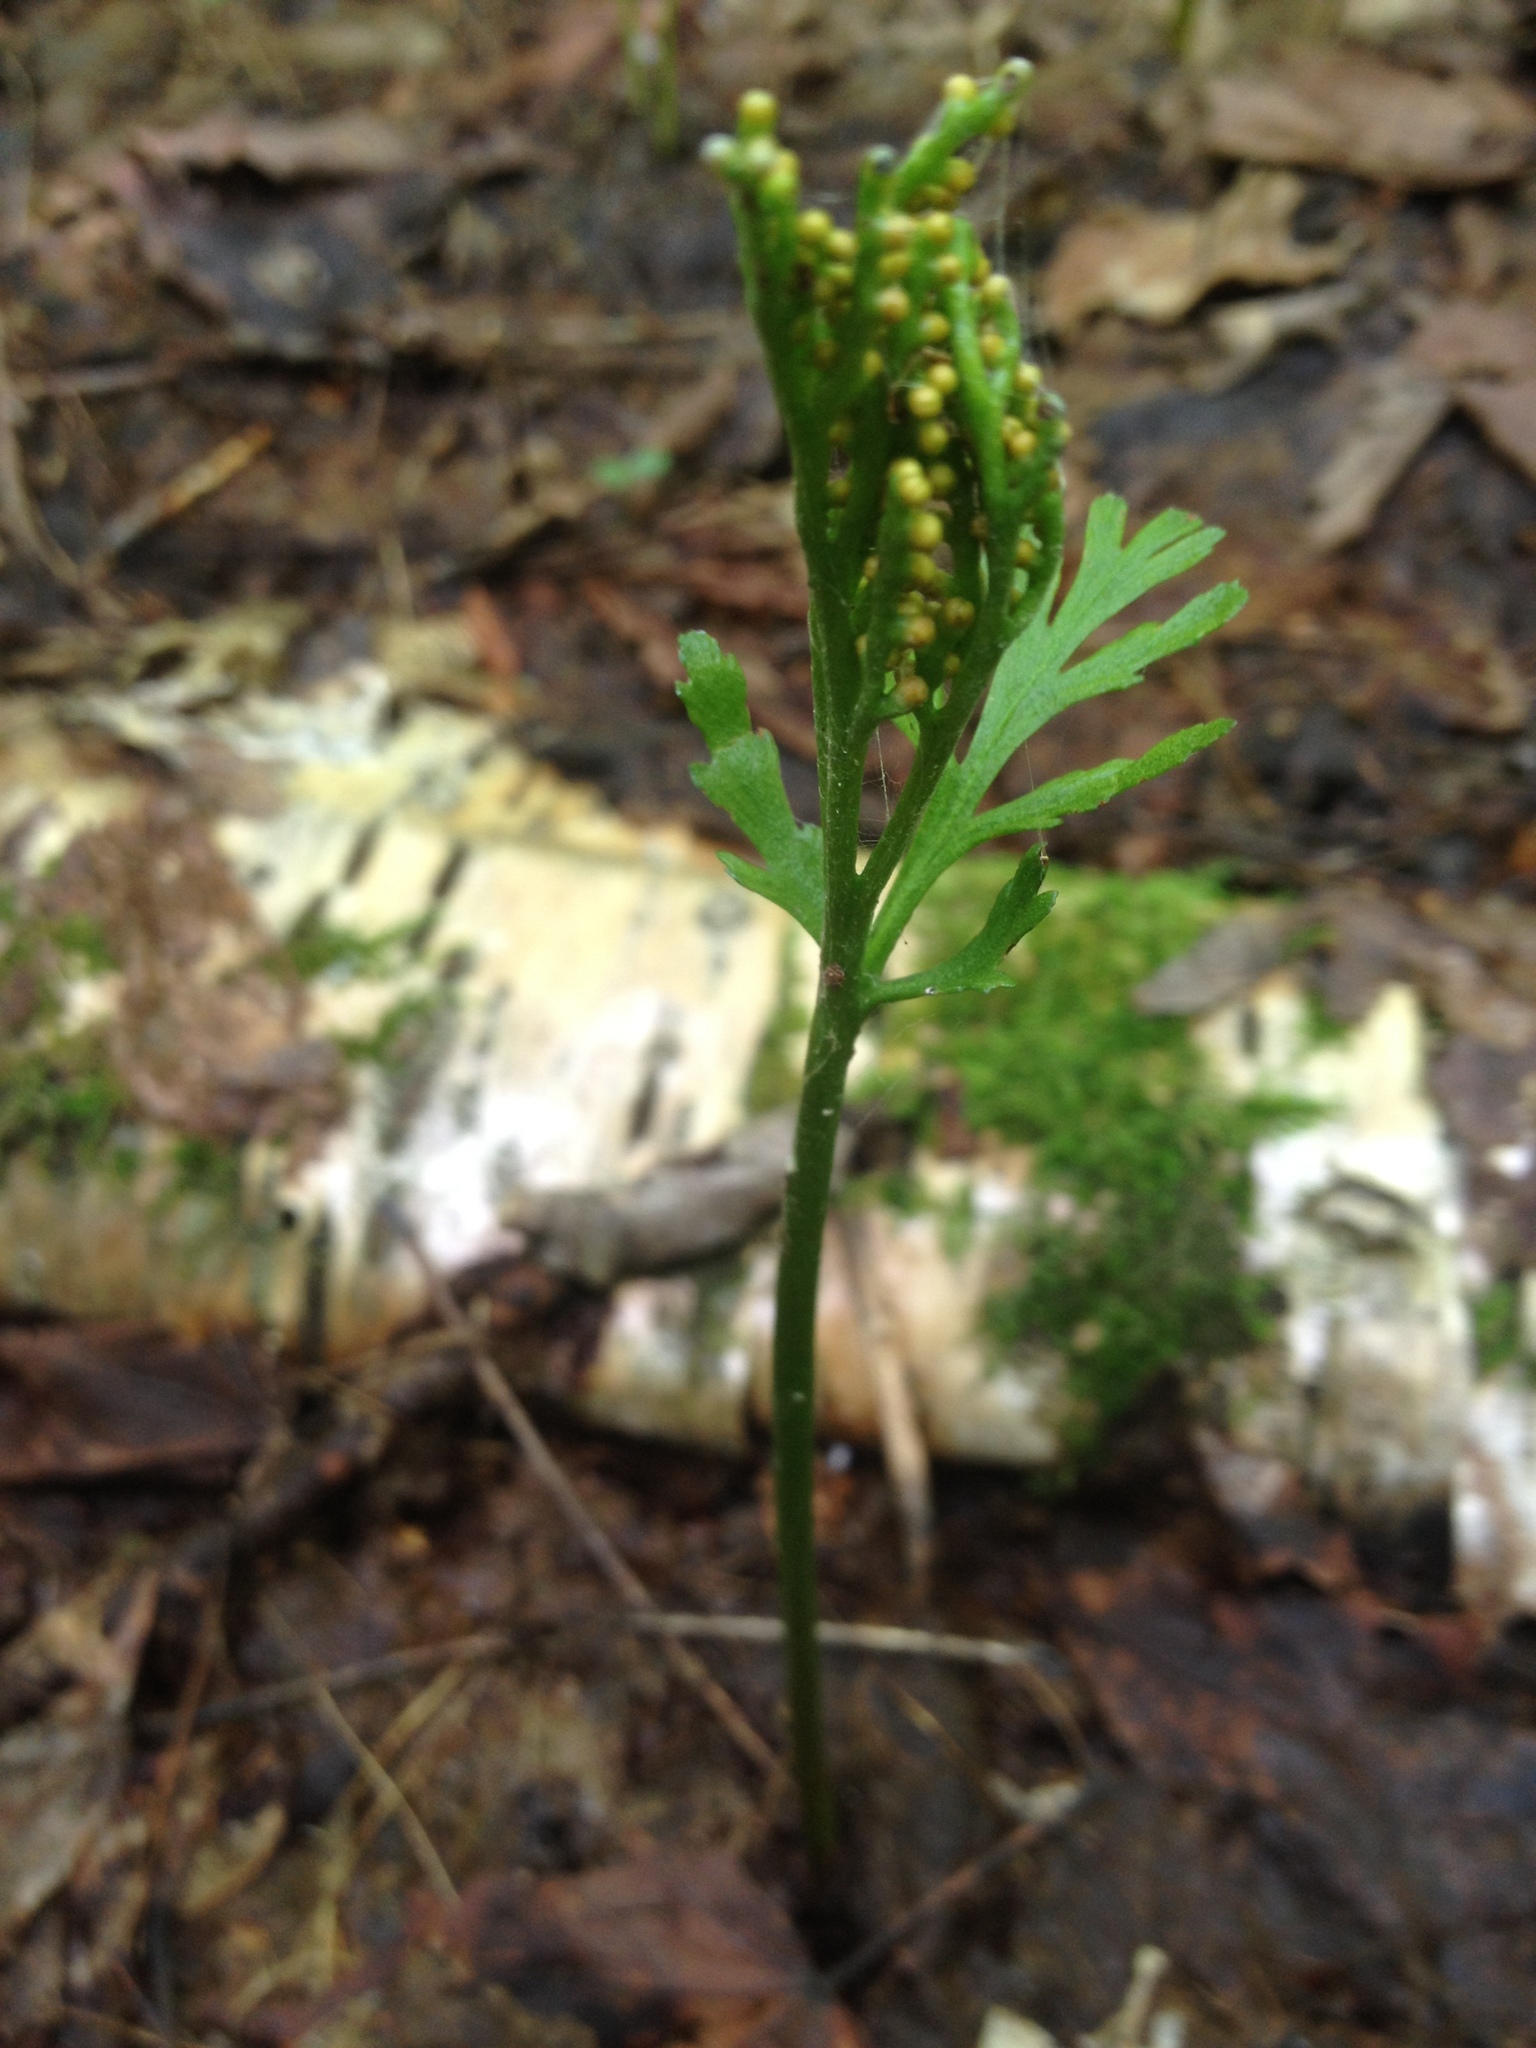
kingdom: Plantae
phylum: Tracheophyta
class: Polypodiopsida
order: Ophioglossales
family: Ophioglossaceae
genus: Botrychium
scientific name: Botrychium angustisegmentum
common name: Narrow triangle moonwort
